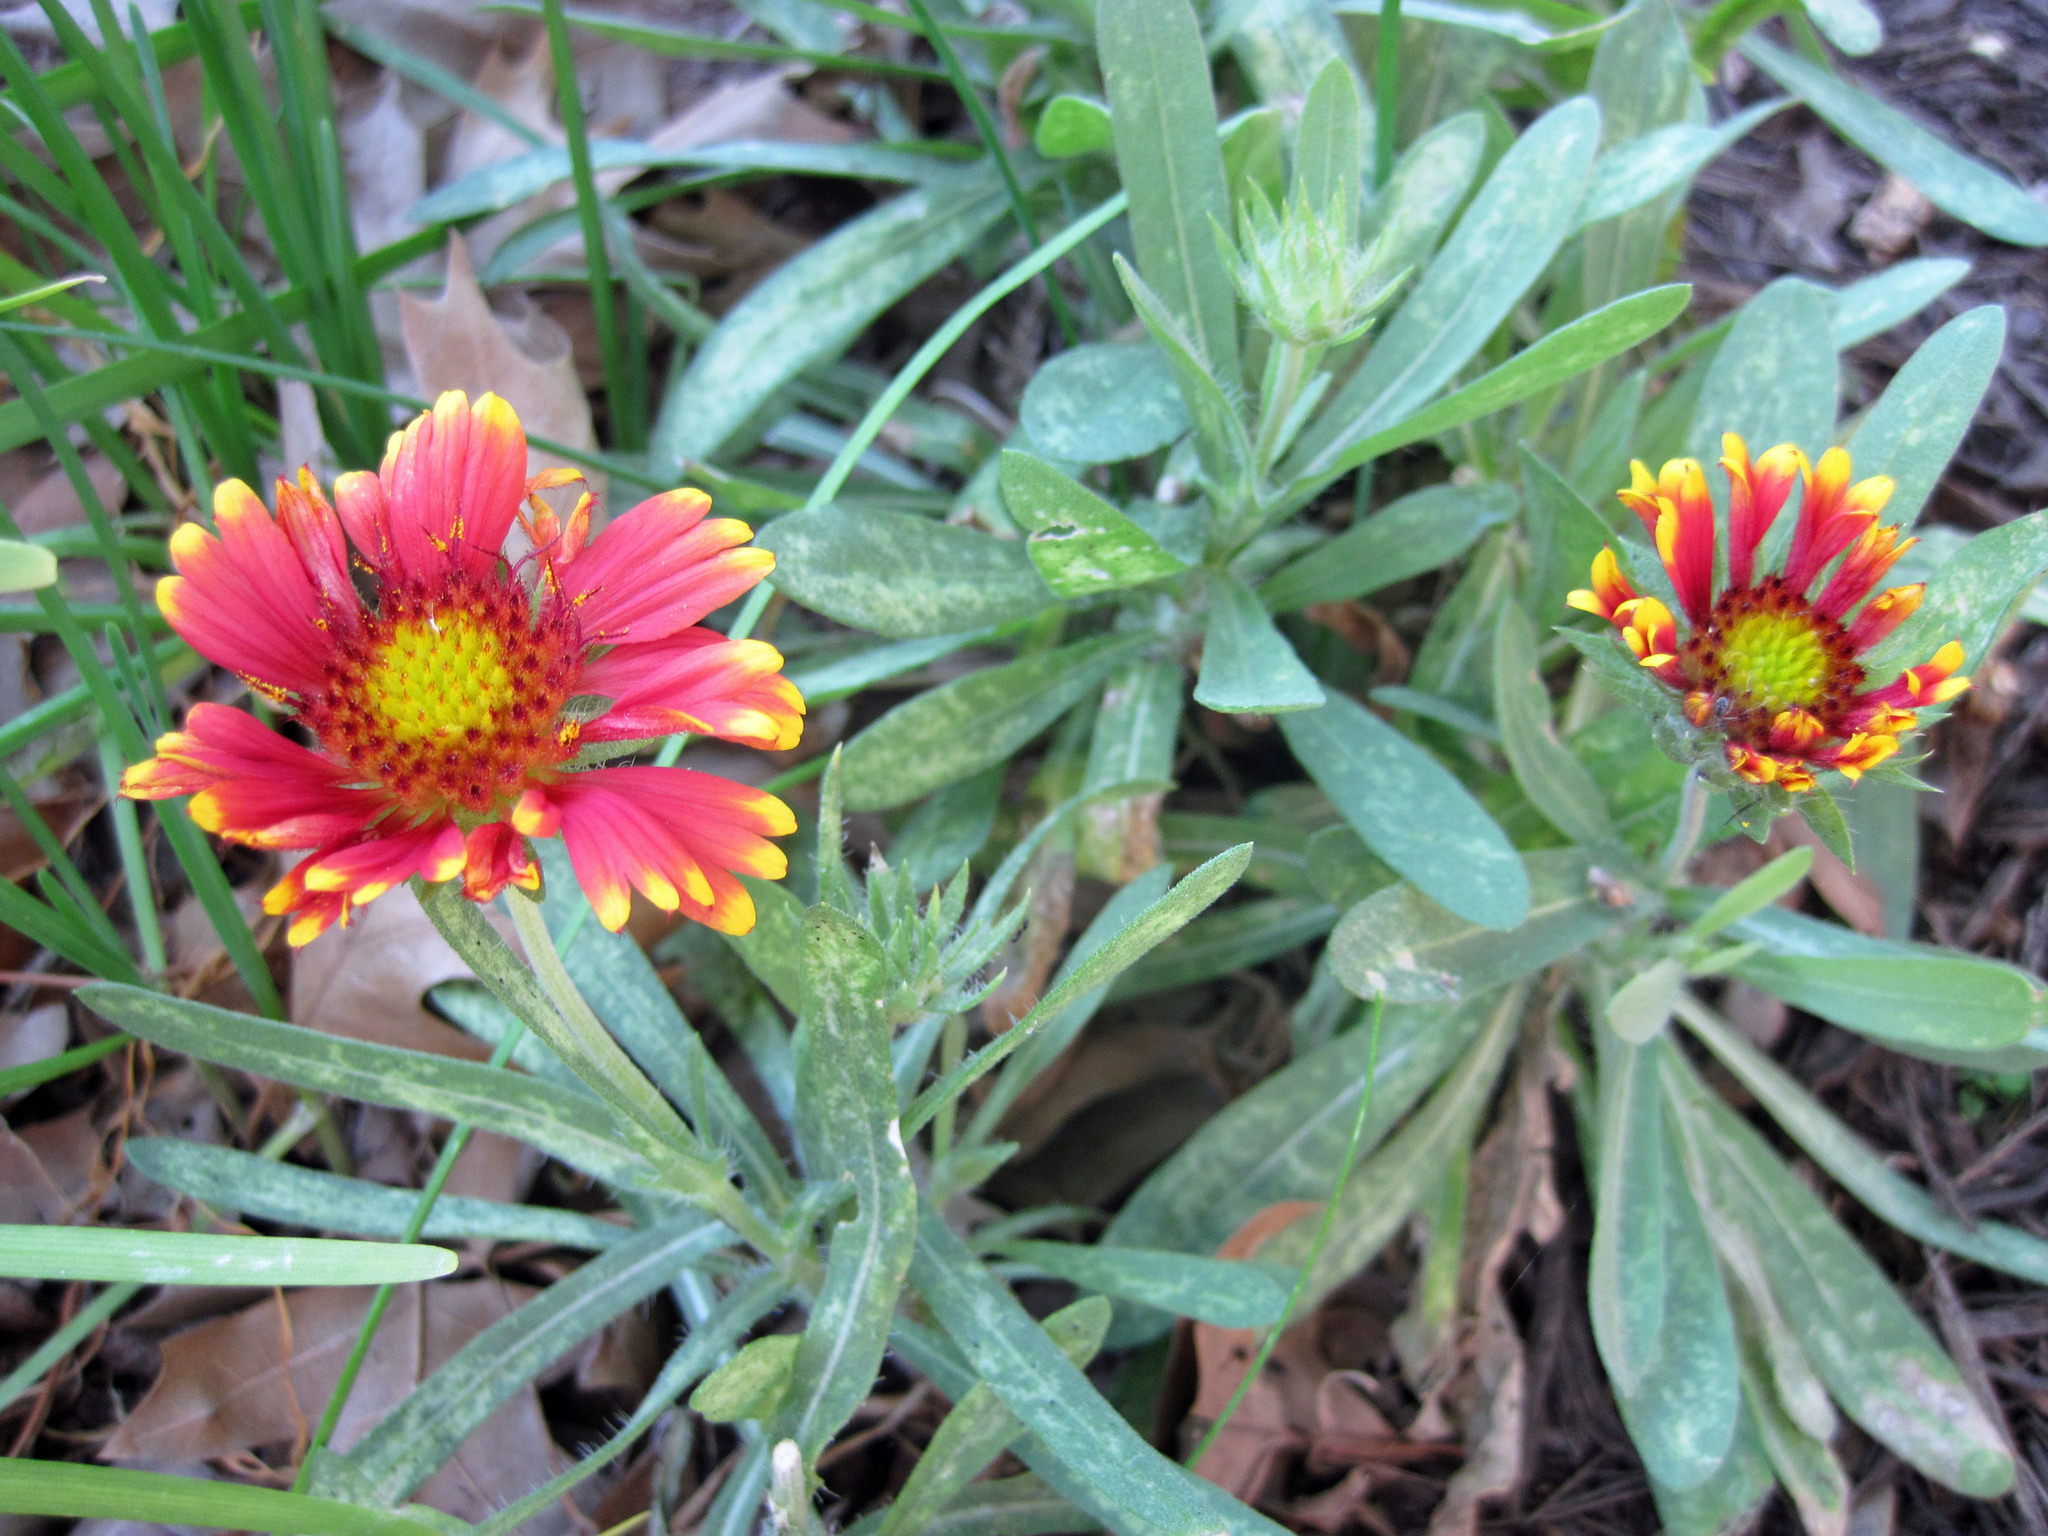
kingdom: Plantae
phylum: Tracheophyta
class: Magnoliopsida
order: Asterales
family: Asteraceae
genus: Gaillardia
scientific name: Gaillardia aestivalis
